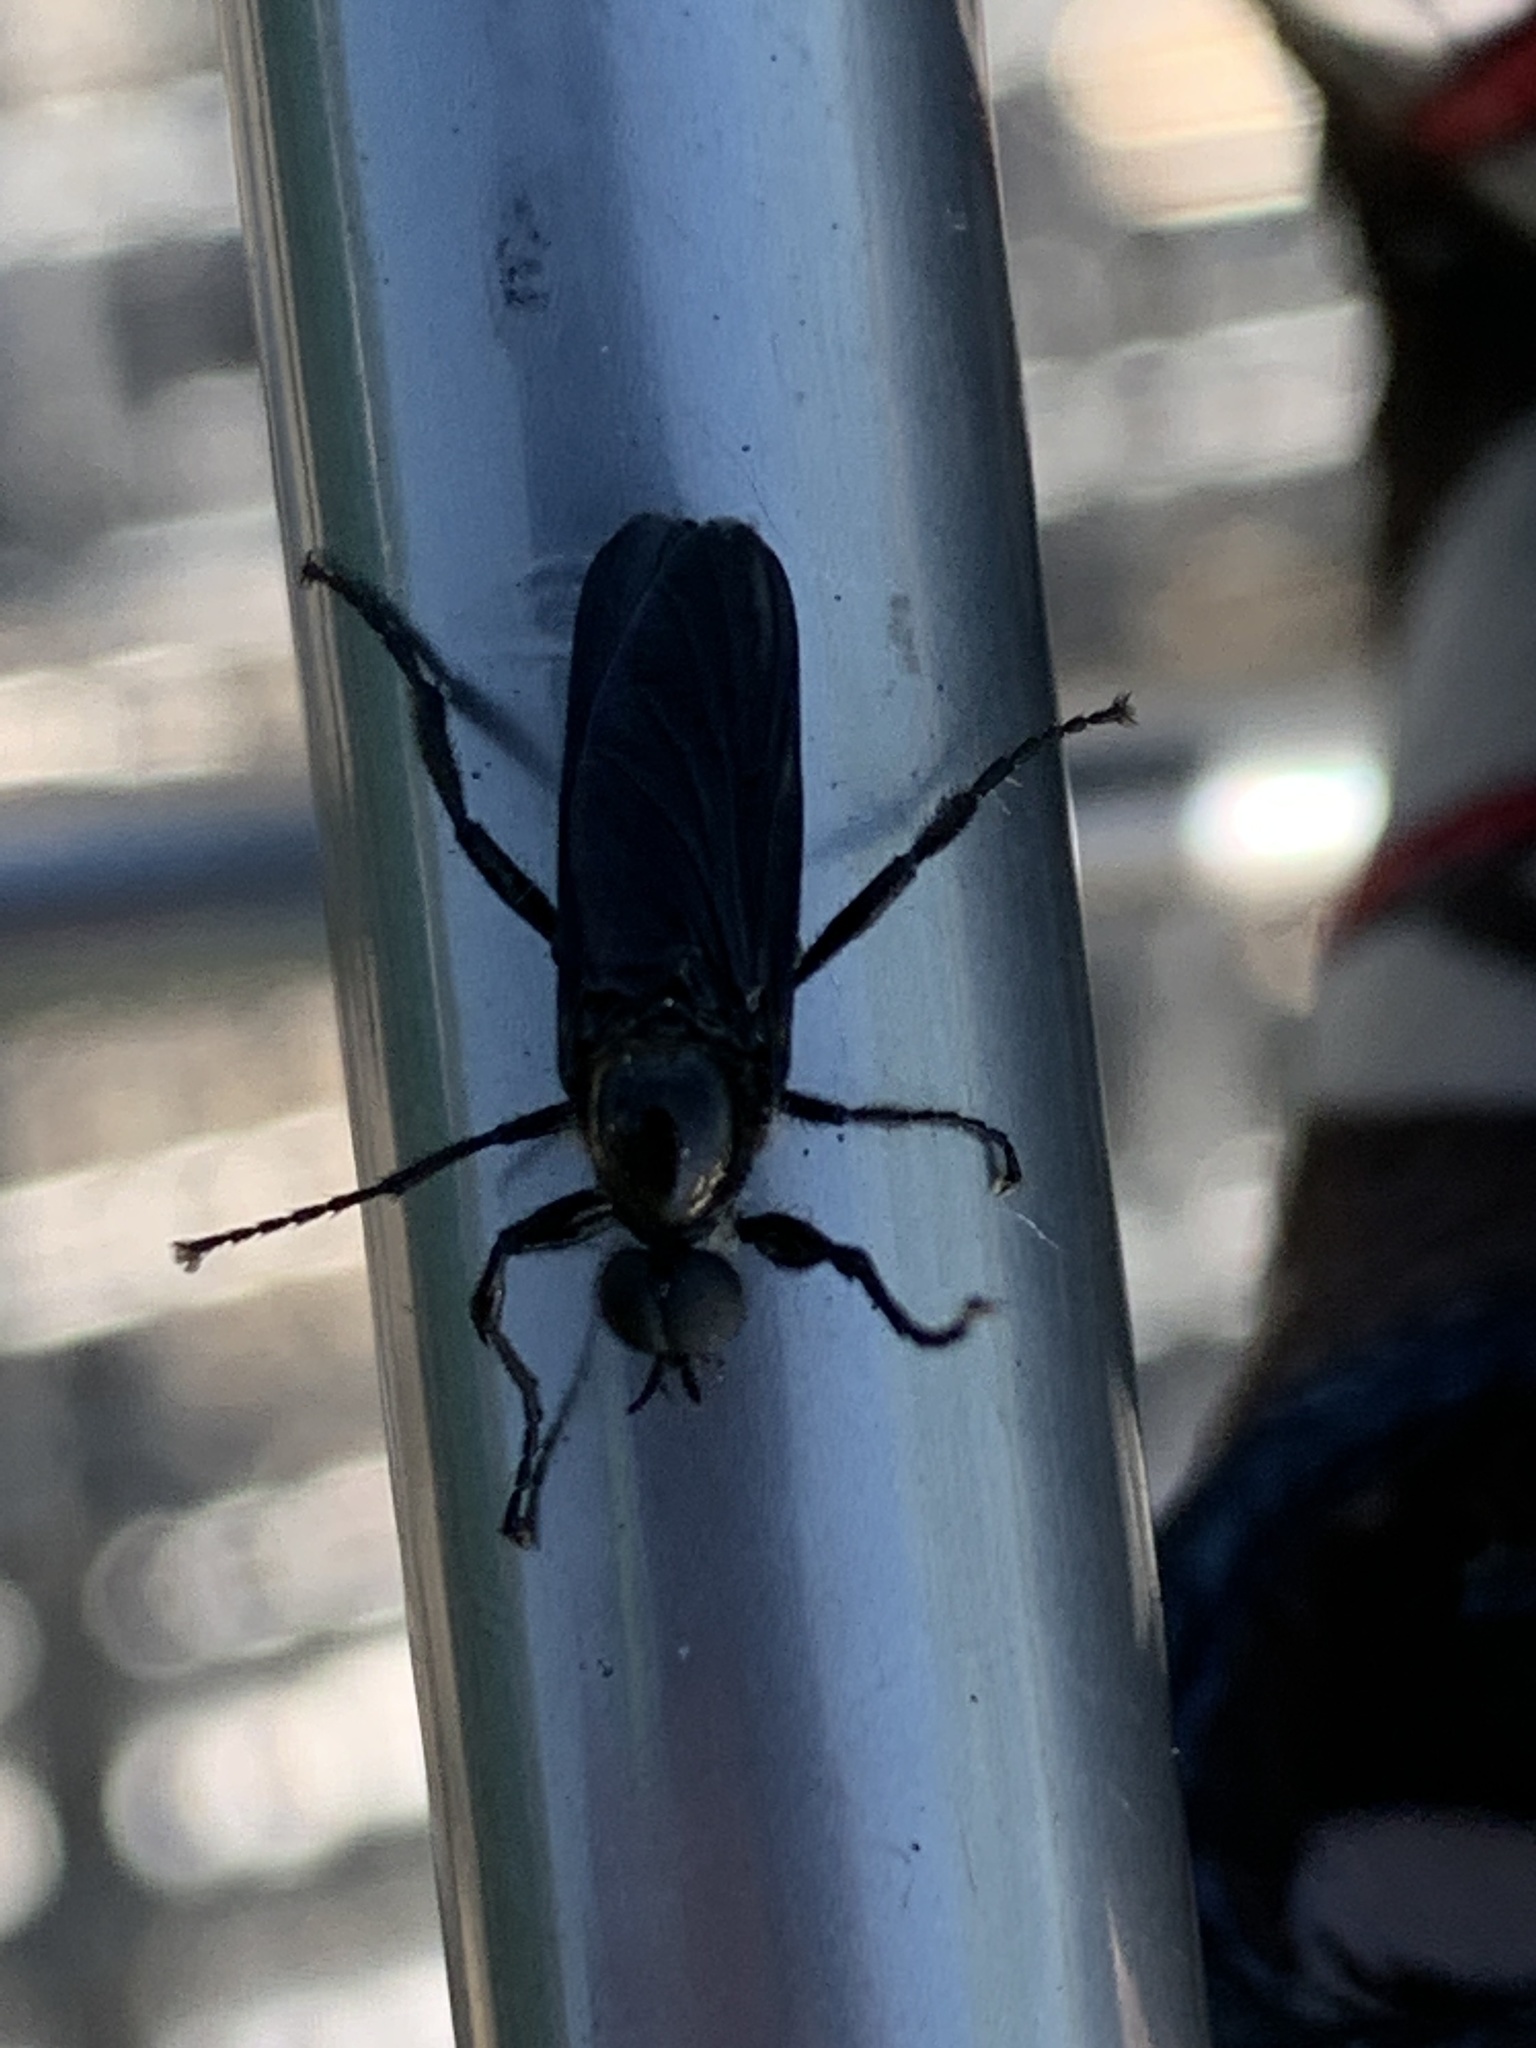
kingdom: Animalia
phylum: Arthropoda
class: Insecta
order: Diptera
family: Bibionidae
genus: Bibio
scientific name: Bibio superfluus
